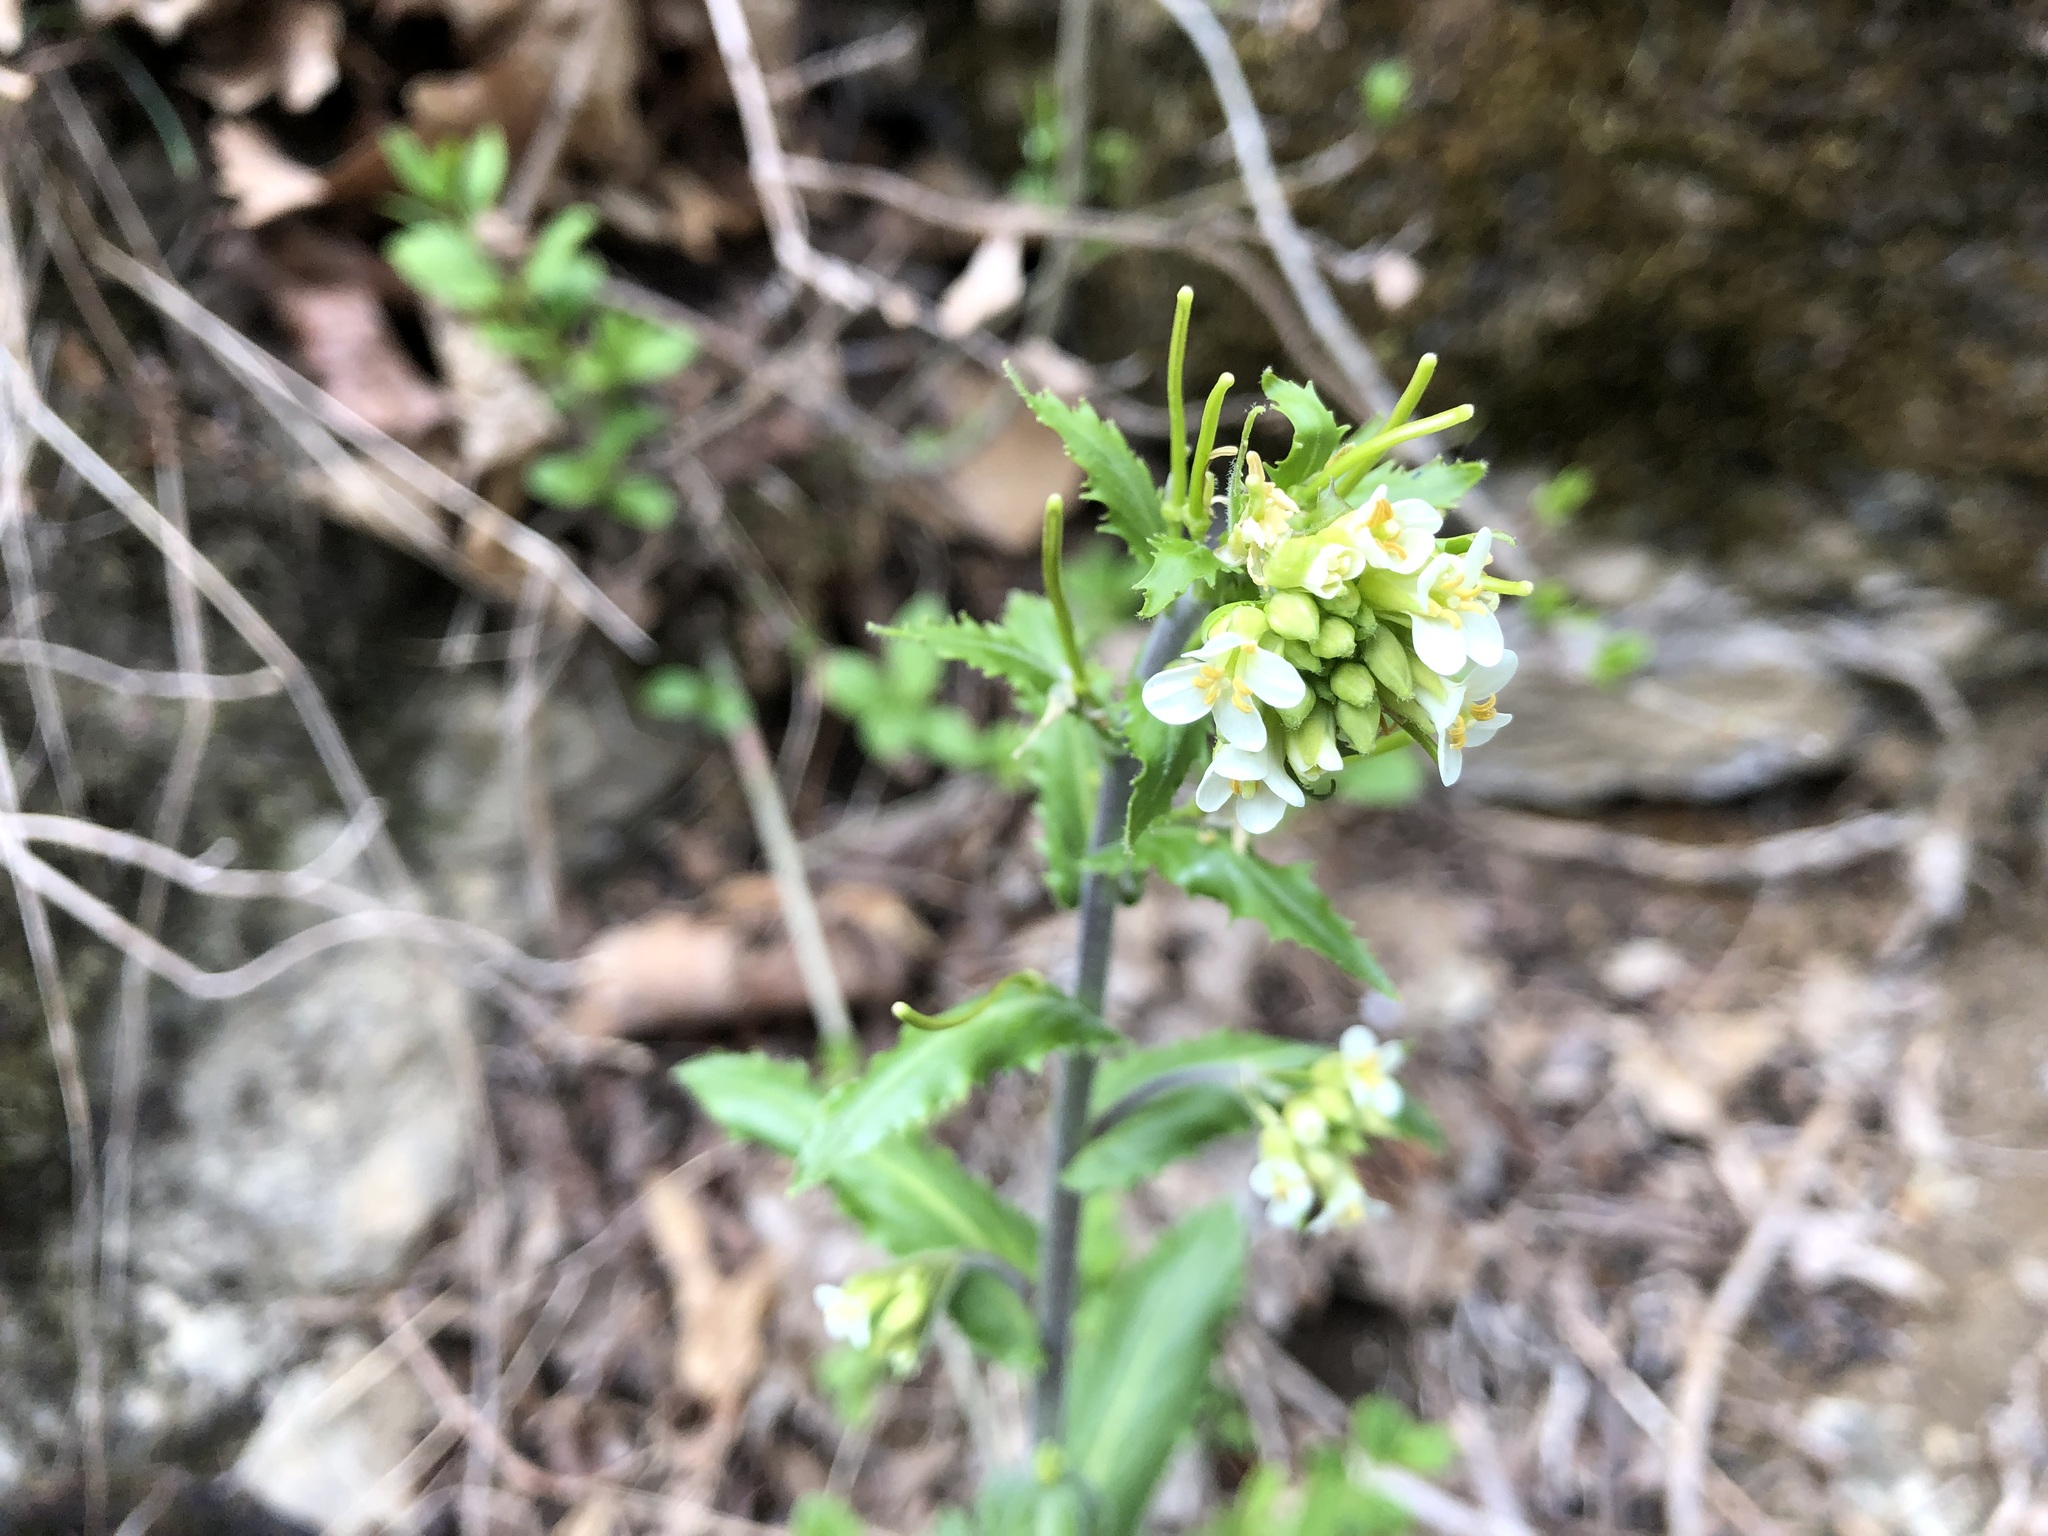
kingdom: Plantae
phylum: Tracheophyta
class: Magnoliopsida
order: Brassicales
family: Brassicaceae
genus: Pseudoturritis
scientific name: Pseudoturritis turrita
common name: Tower cress
